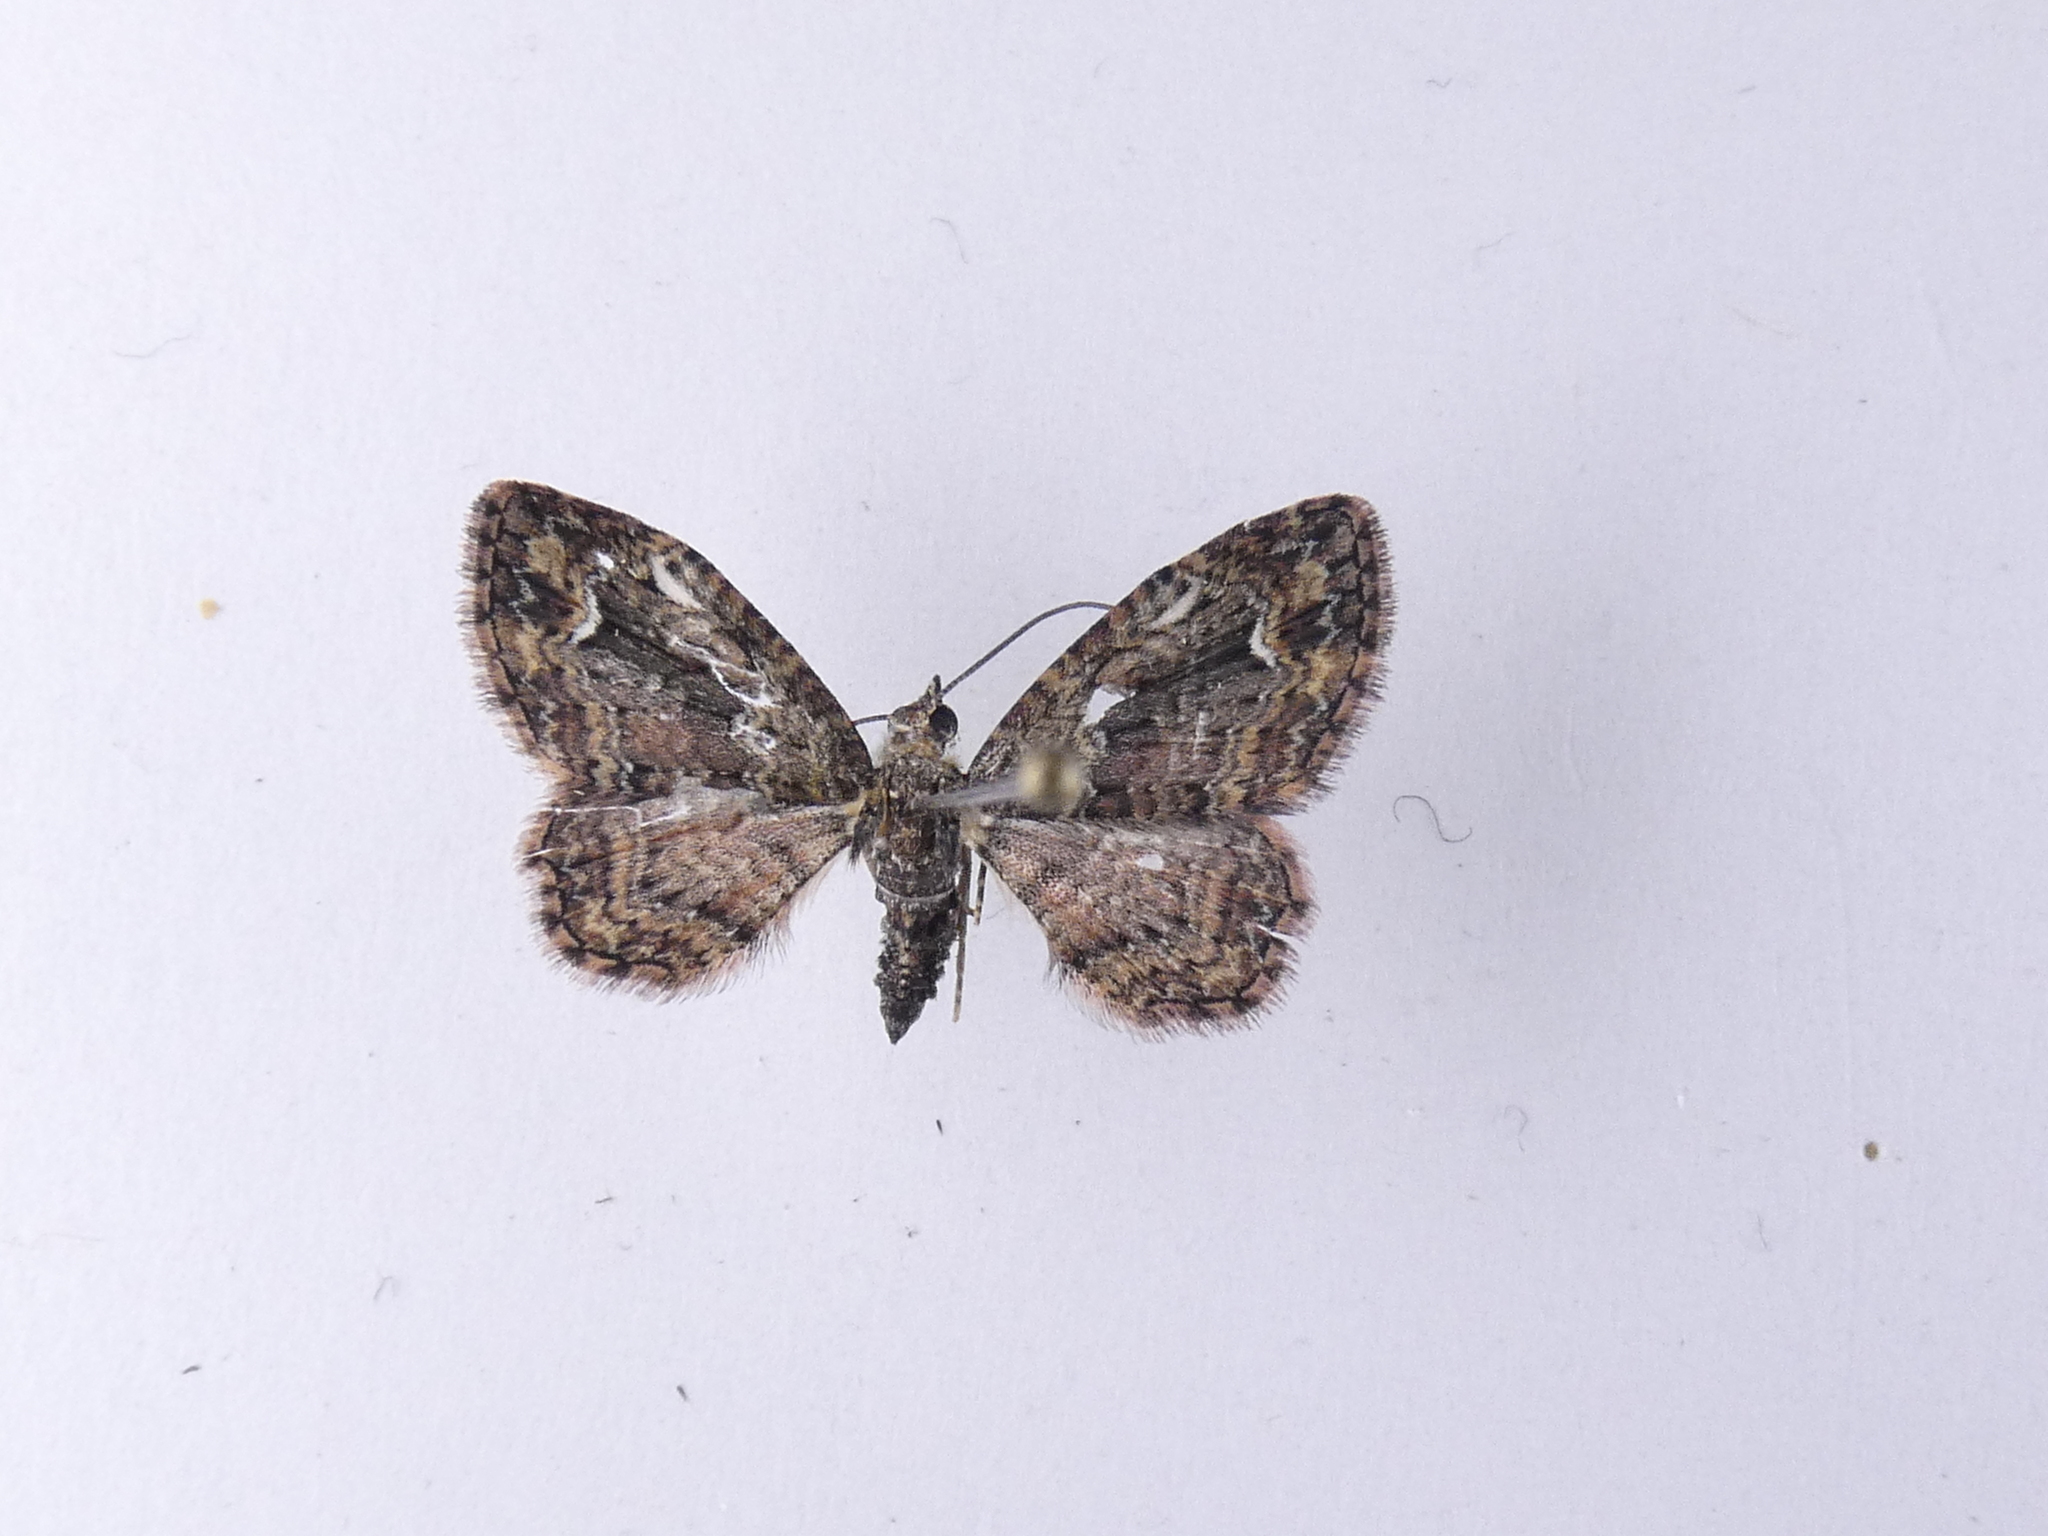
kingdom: Animalia
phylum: Arthropoda
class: Insecta
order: Lepidoptera
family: Geometridae
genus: Pasiphilodes
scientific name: Pasiphilodes testulata
